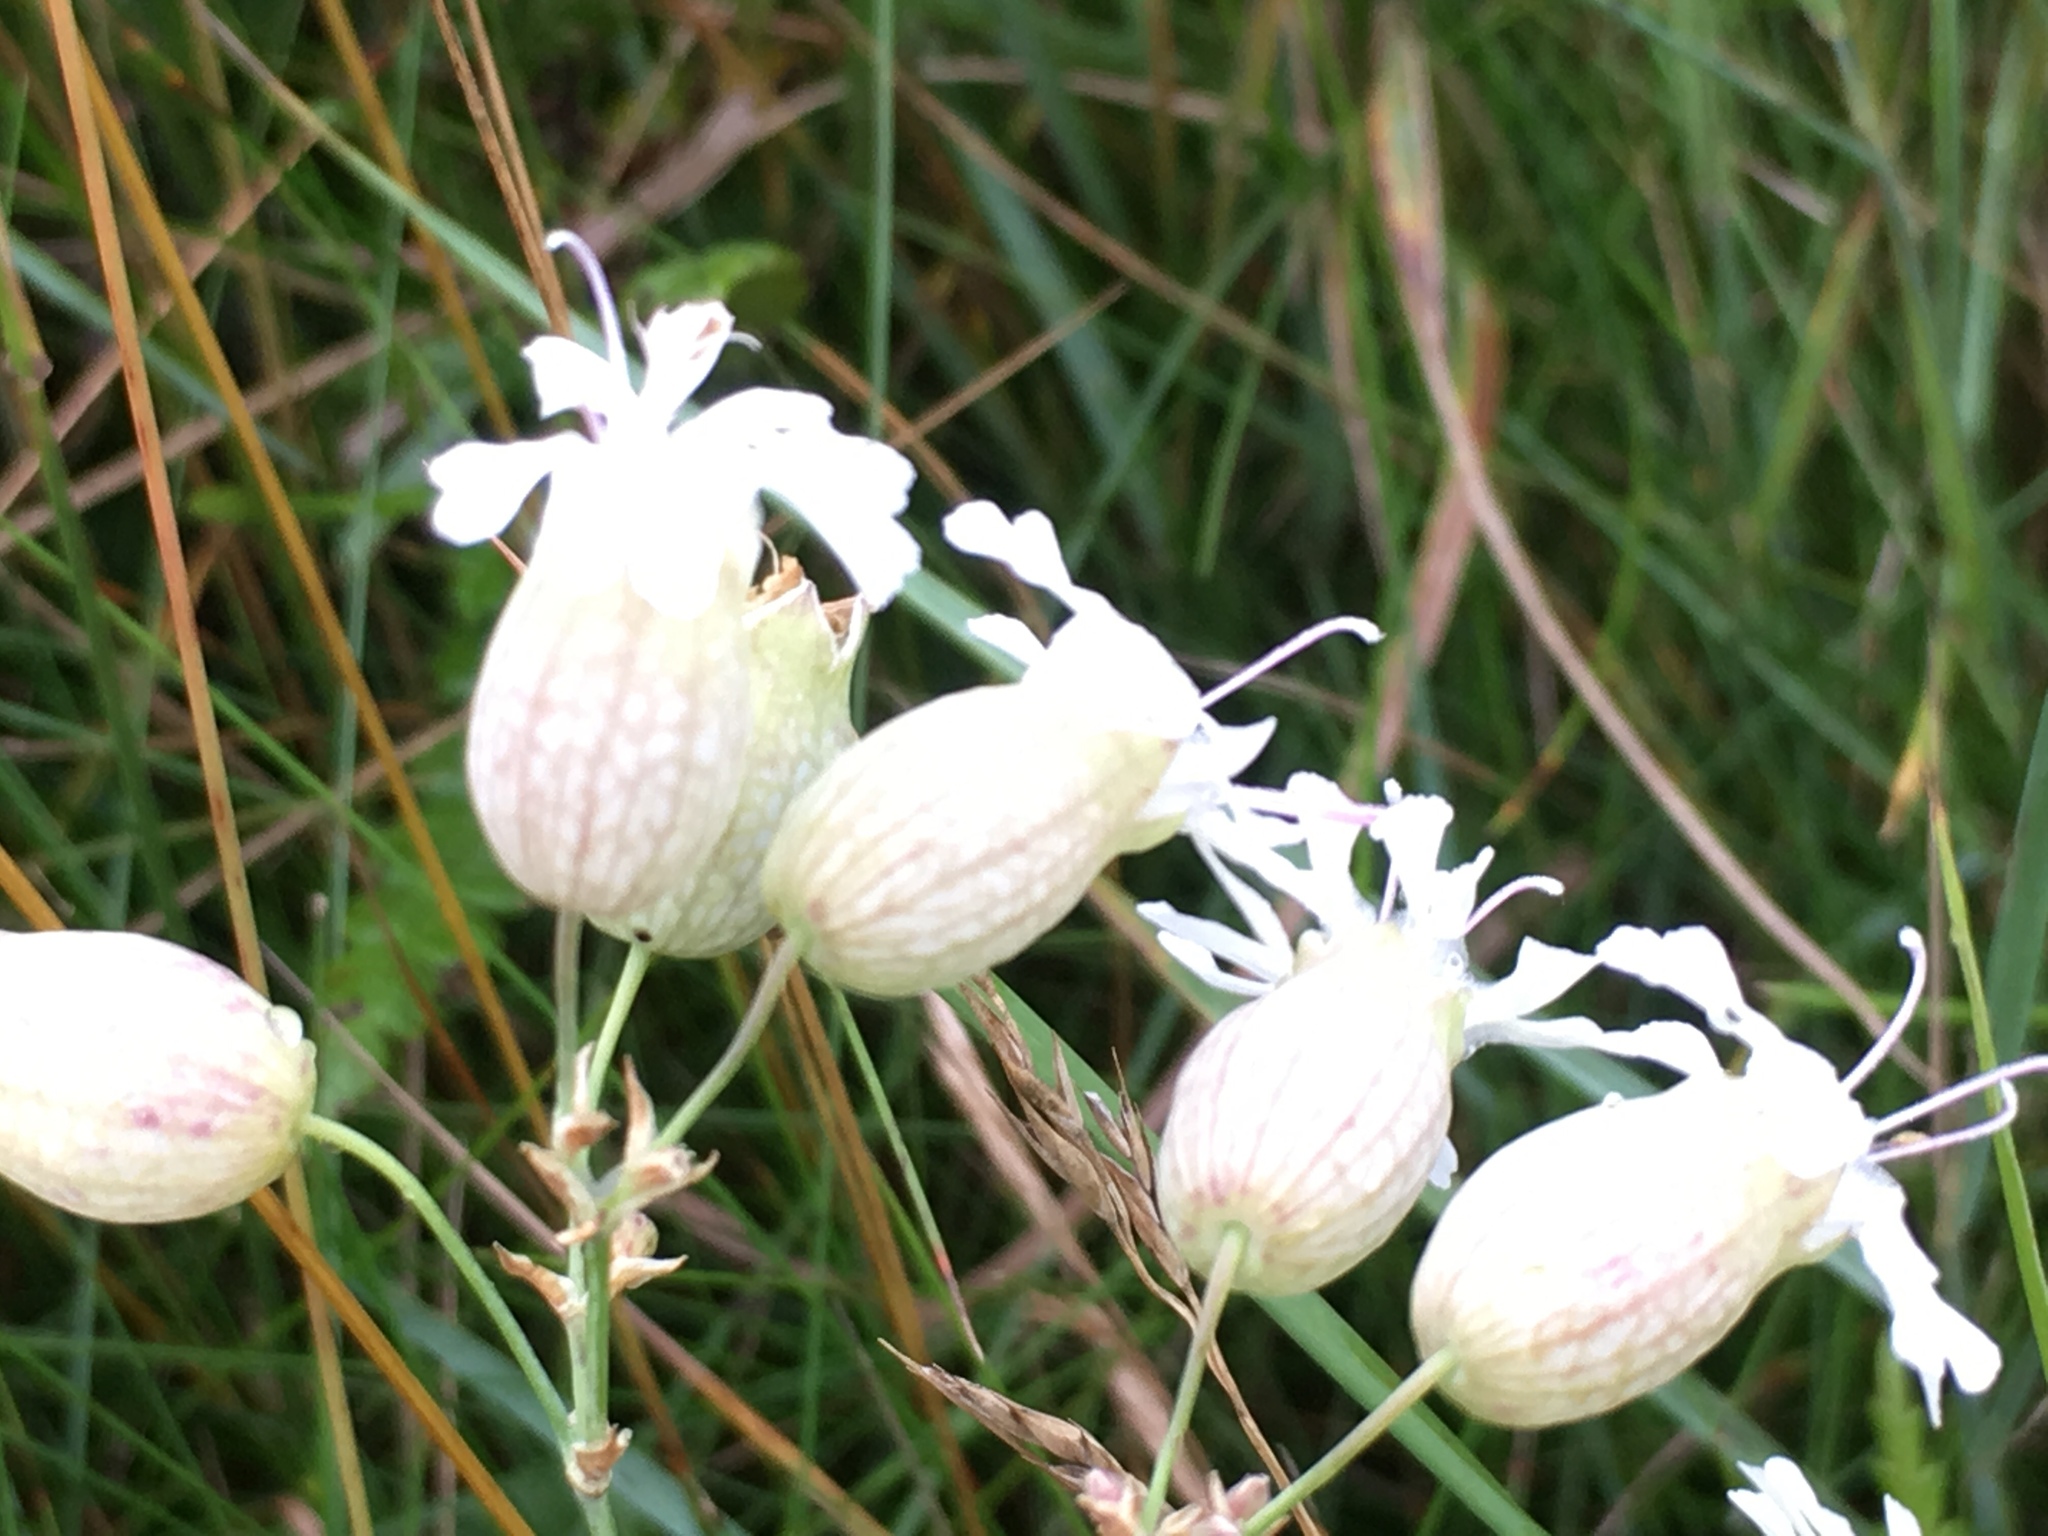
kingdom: Plantae
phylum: Tracheophyta
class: Magnoliopsida
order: Caryophyllales
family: Caryophyllaceae
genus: Silene
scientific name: Silene vulgaris
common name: Bladder campion
